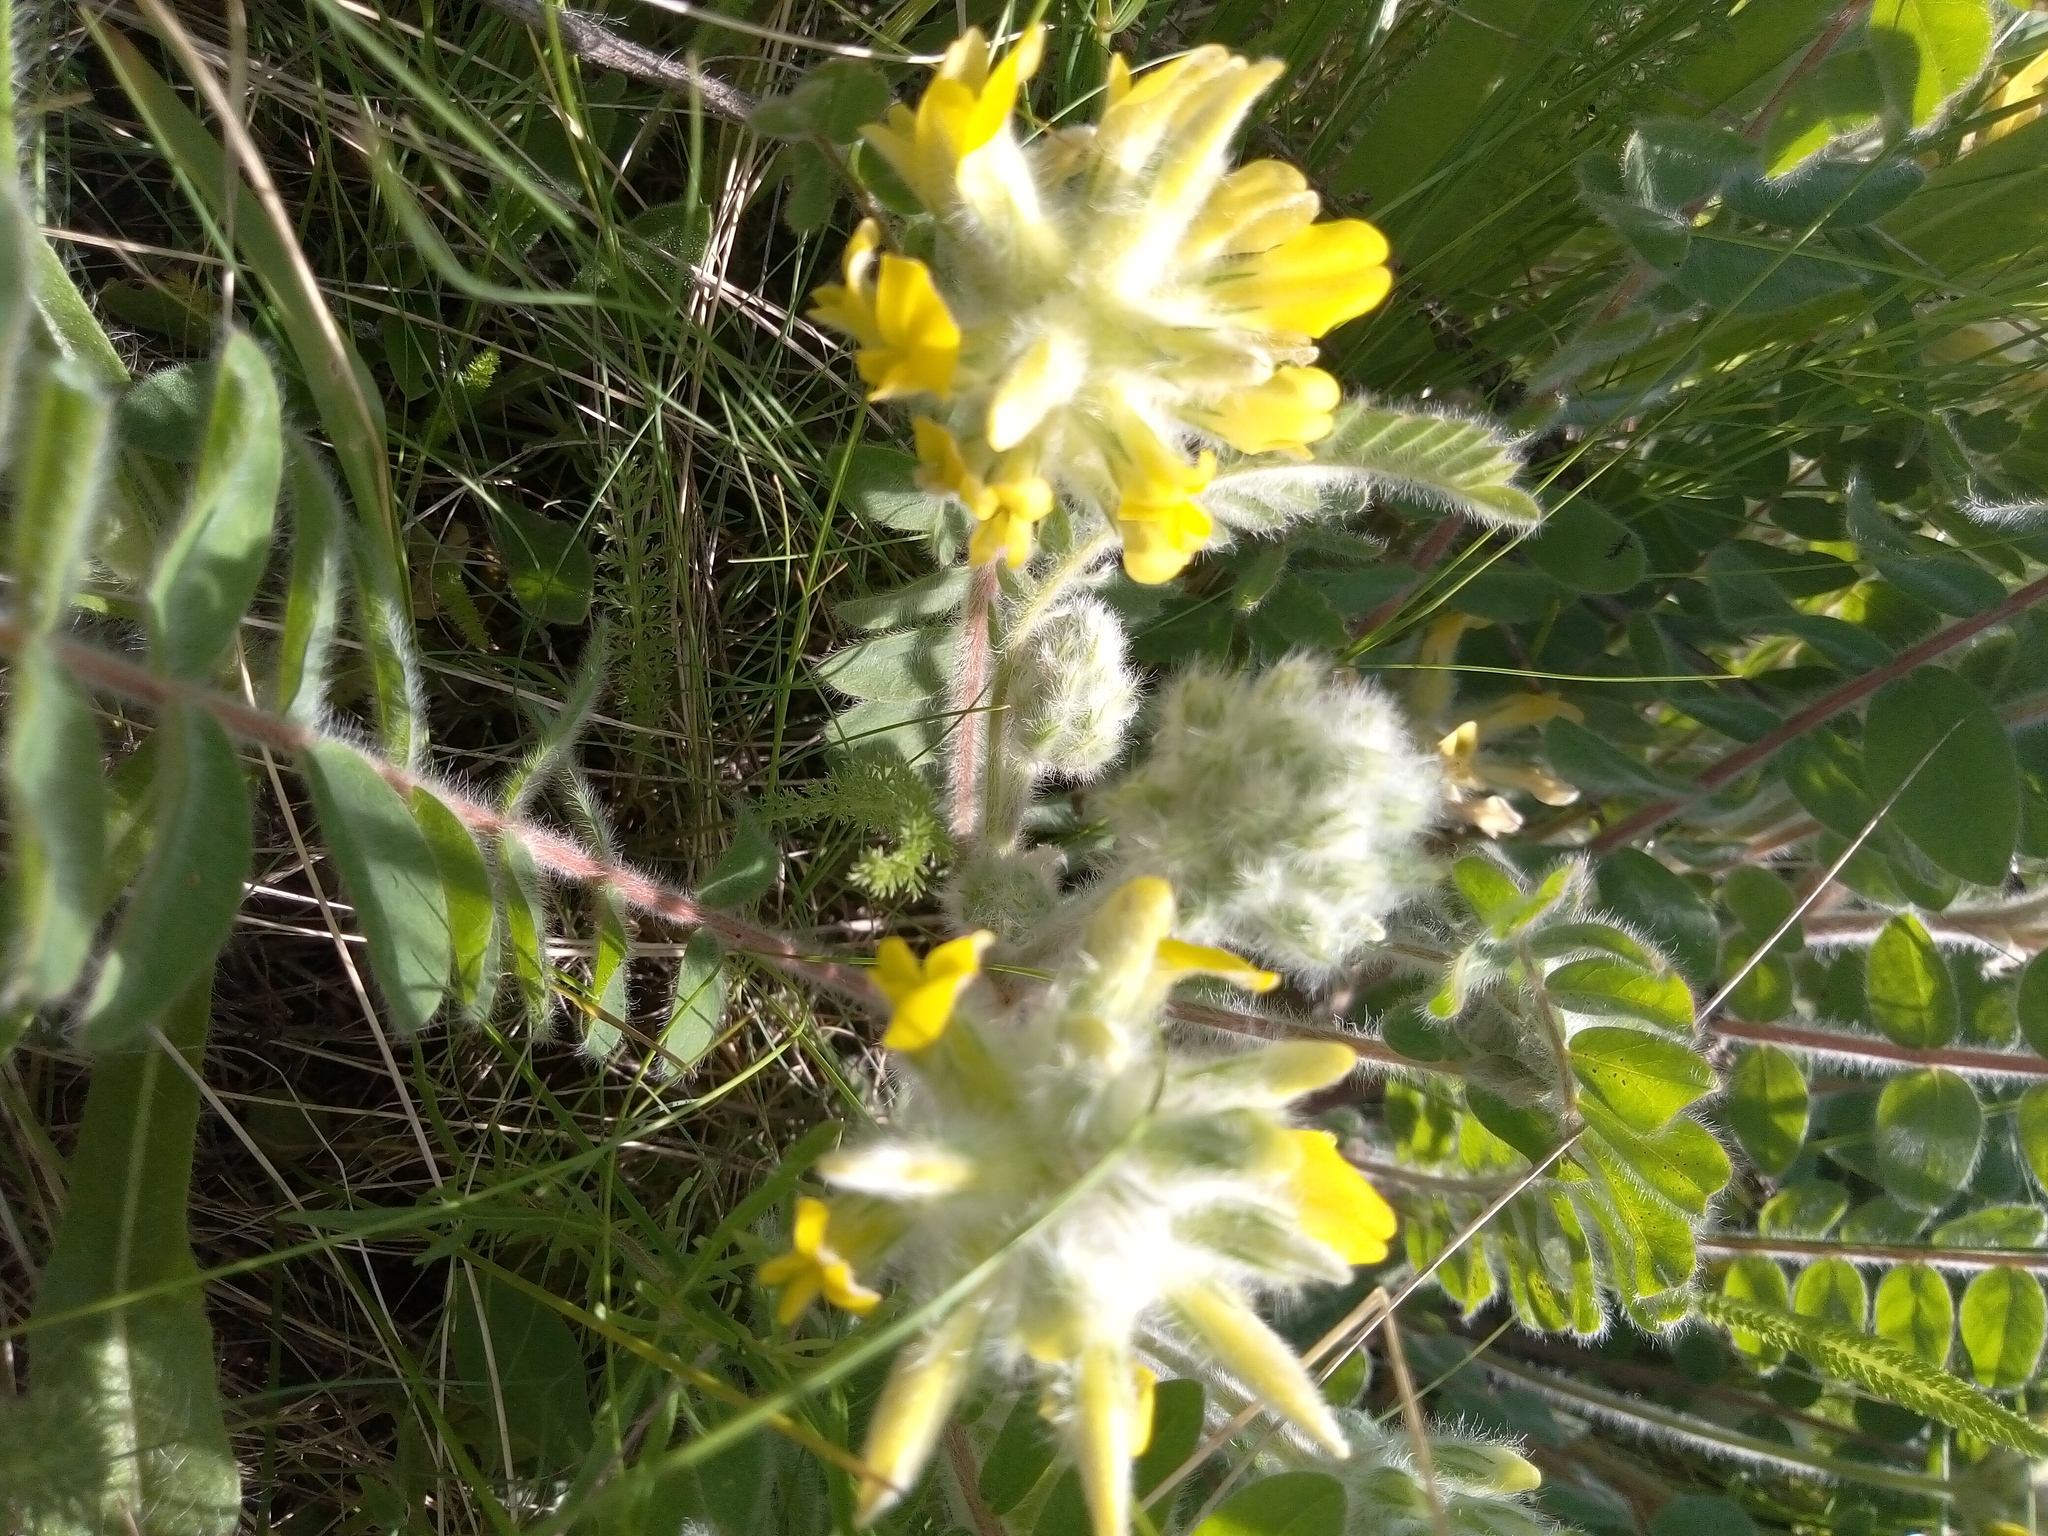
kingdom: Plantae
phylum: Tracheophyta
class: Magnoliopsida
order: Fabales
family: Fabaceae
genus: Astragalus
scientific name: Astragalus dasyanthus
